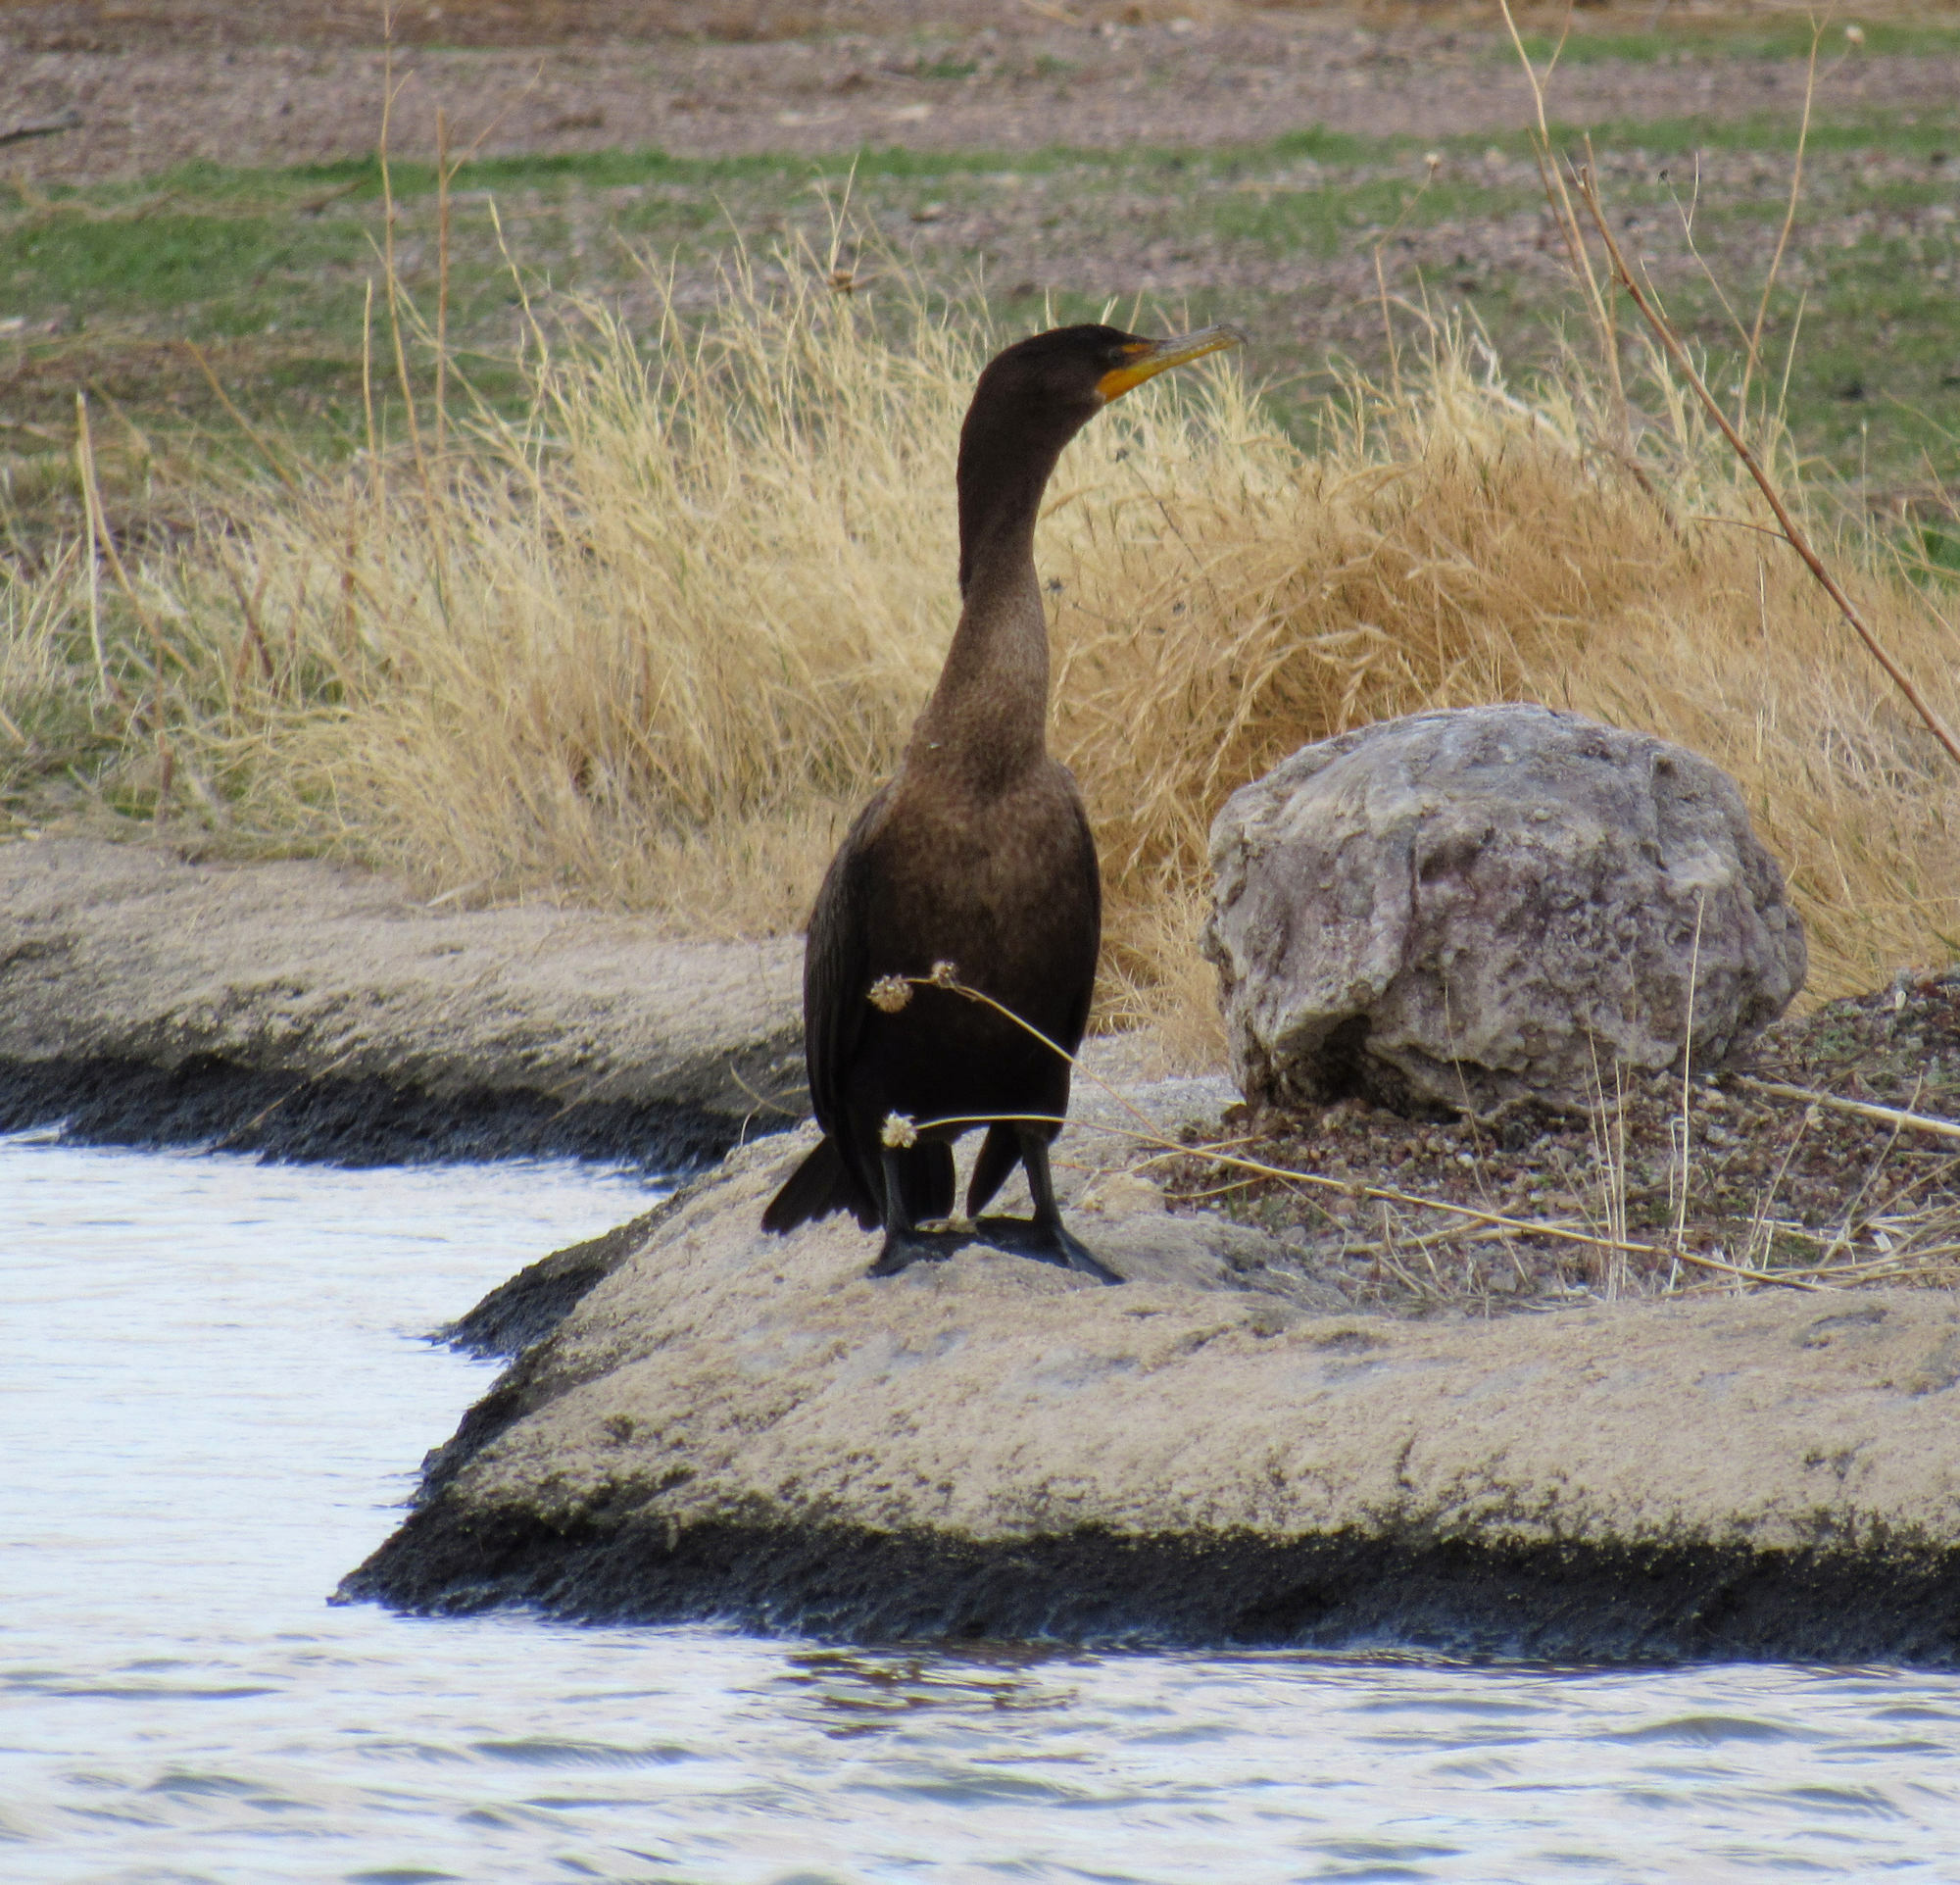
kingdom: Animalia
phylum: Chordata
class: Aves
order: Suliformes
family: Phalacrocoracidae
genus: Phalacrocorax
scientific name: Phalacrocorax auritus
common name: Double-crested cormorant
